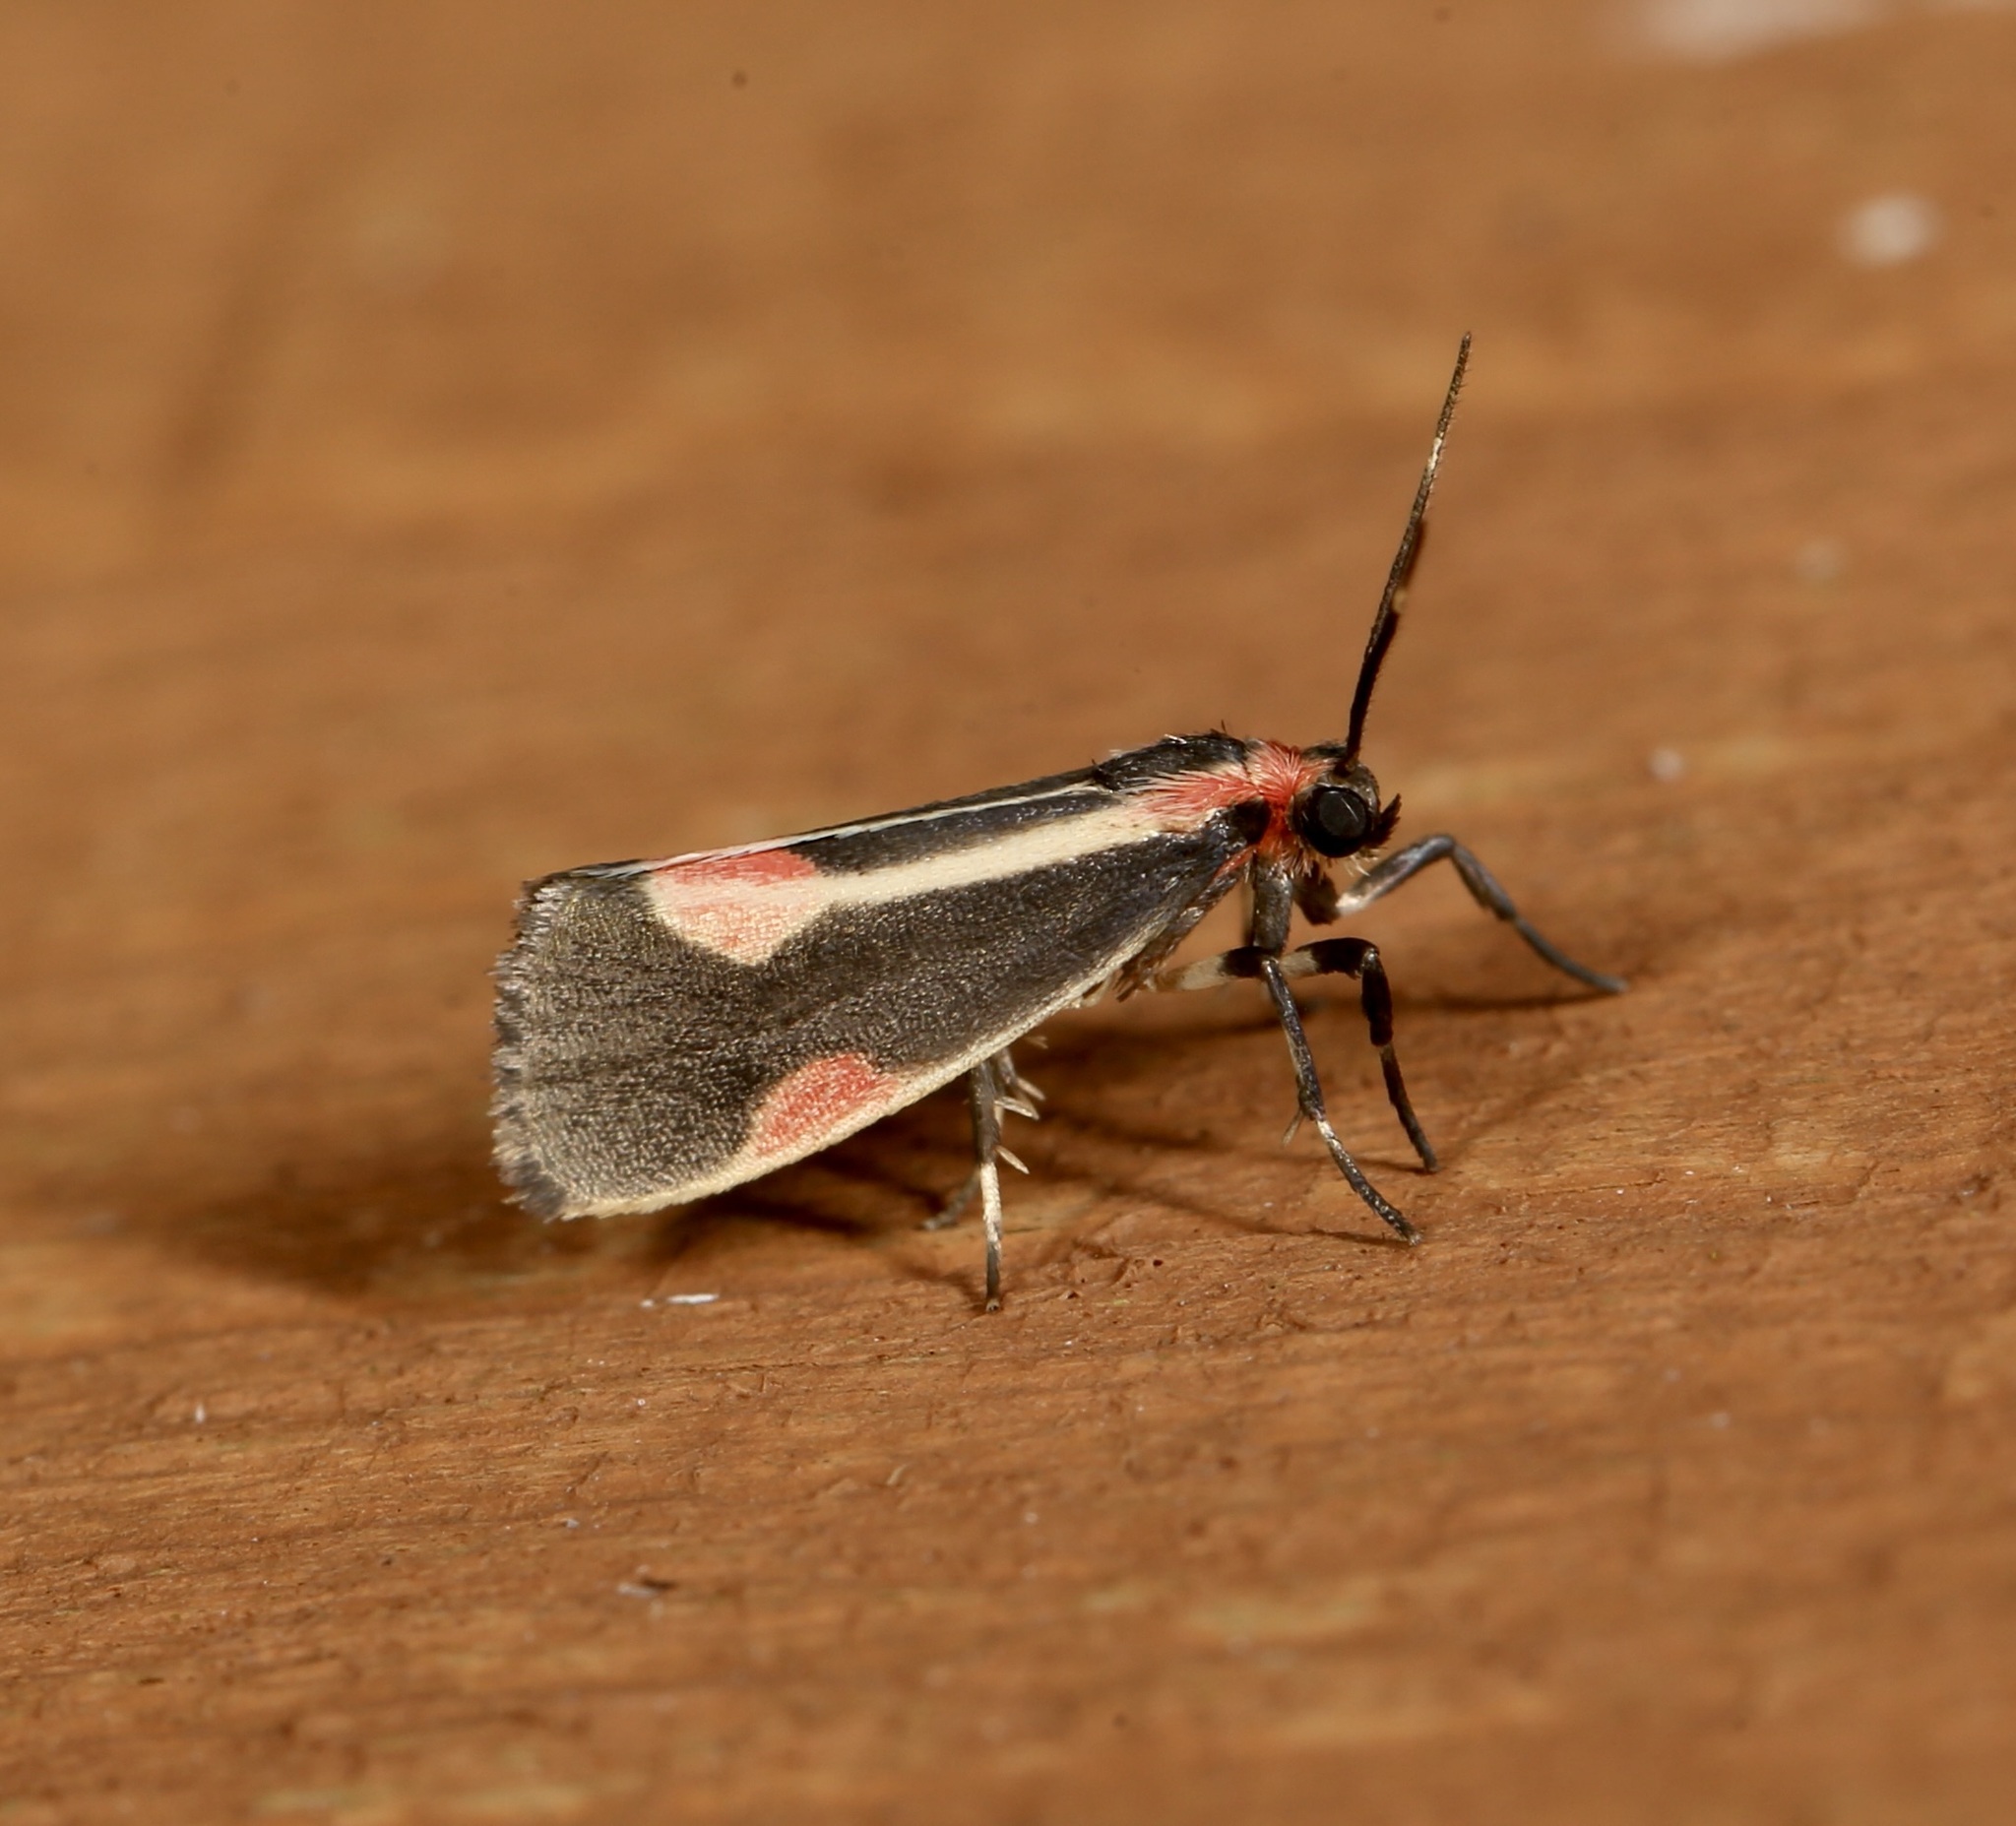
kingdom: Animalia
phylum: Arthropoda
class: Insecta
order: Lepidoptera
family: Erebidae
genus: Cisthene
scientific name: Cisthene packardii
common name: Packard's lichen moth
